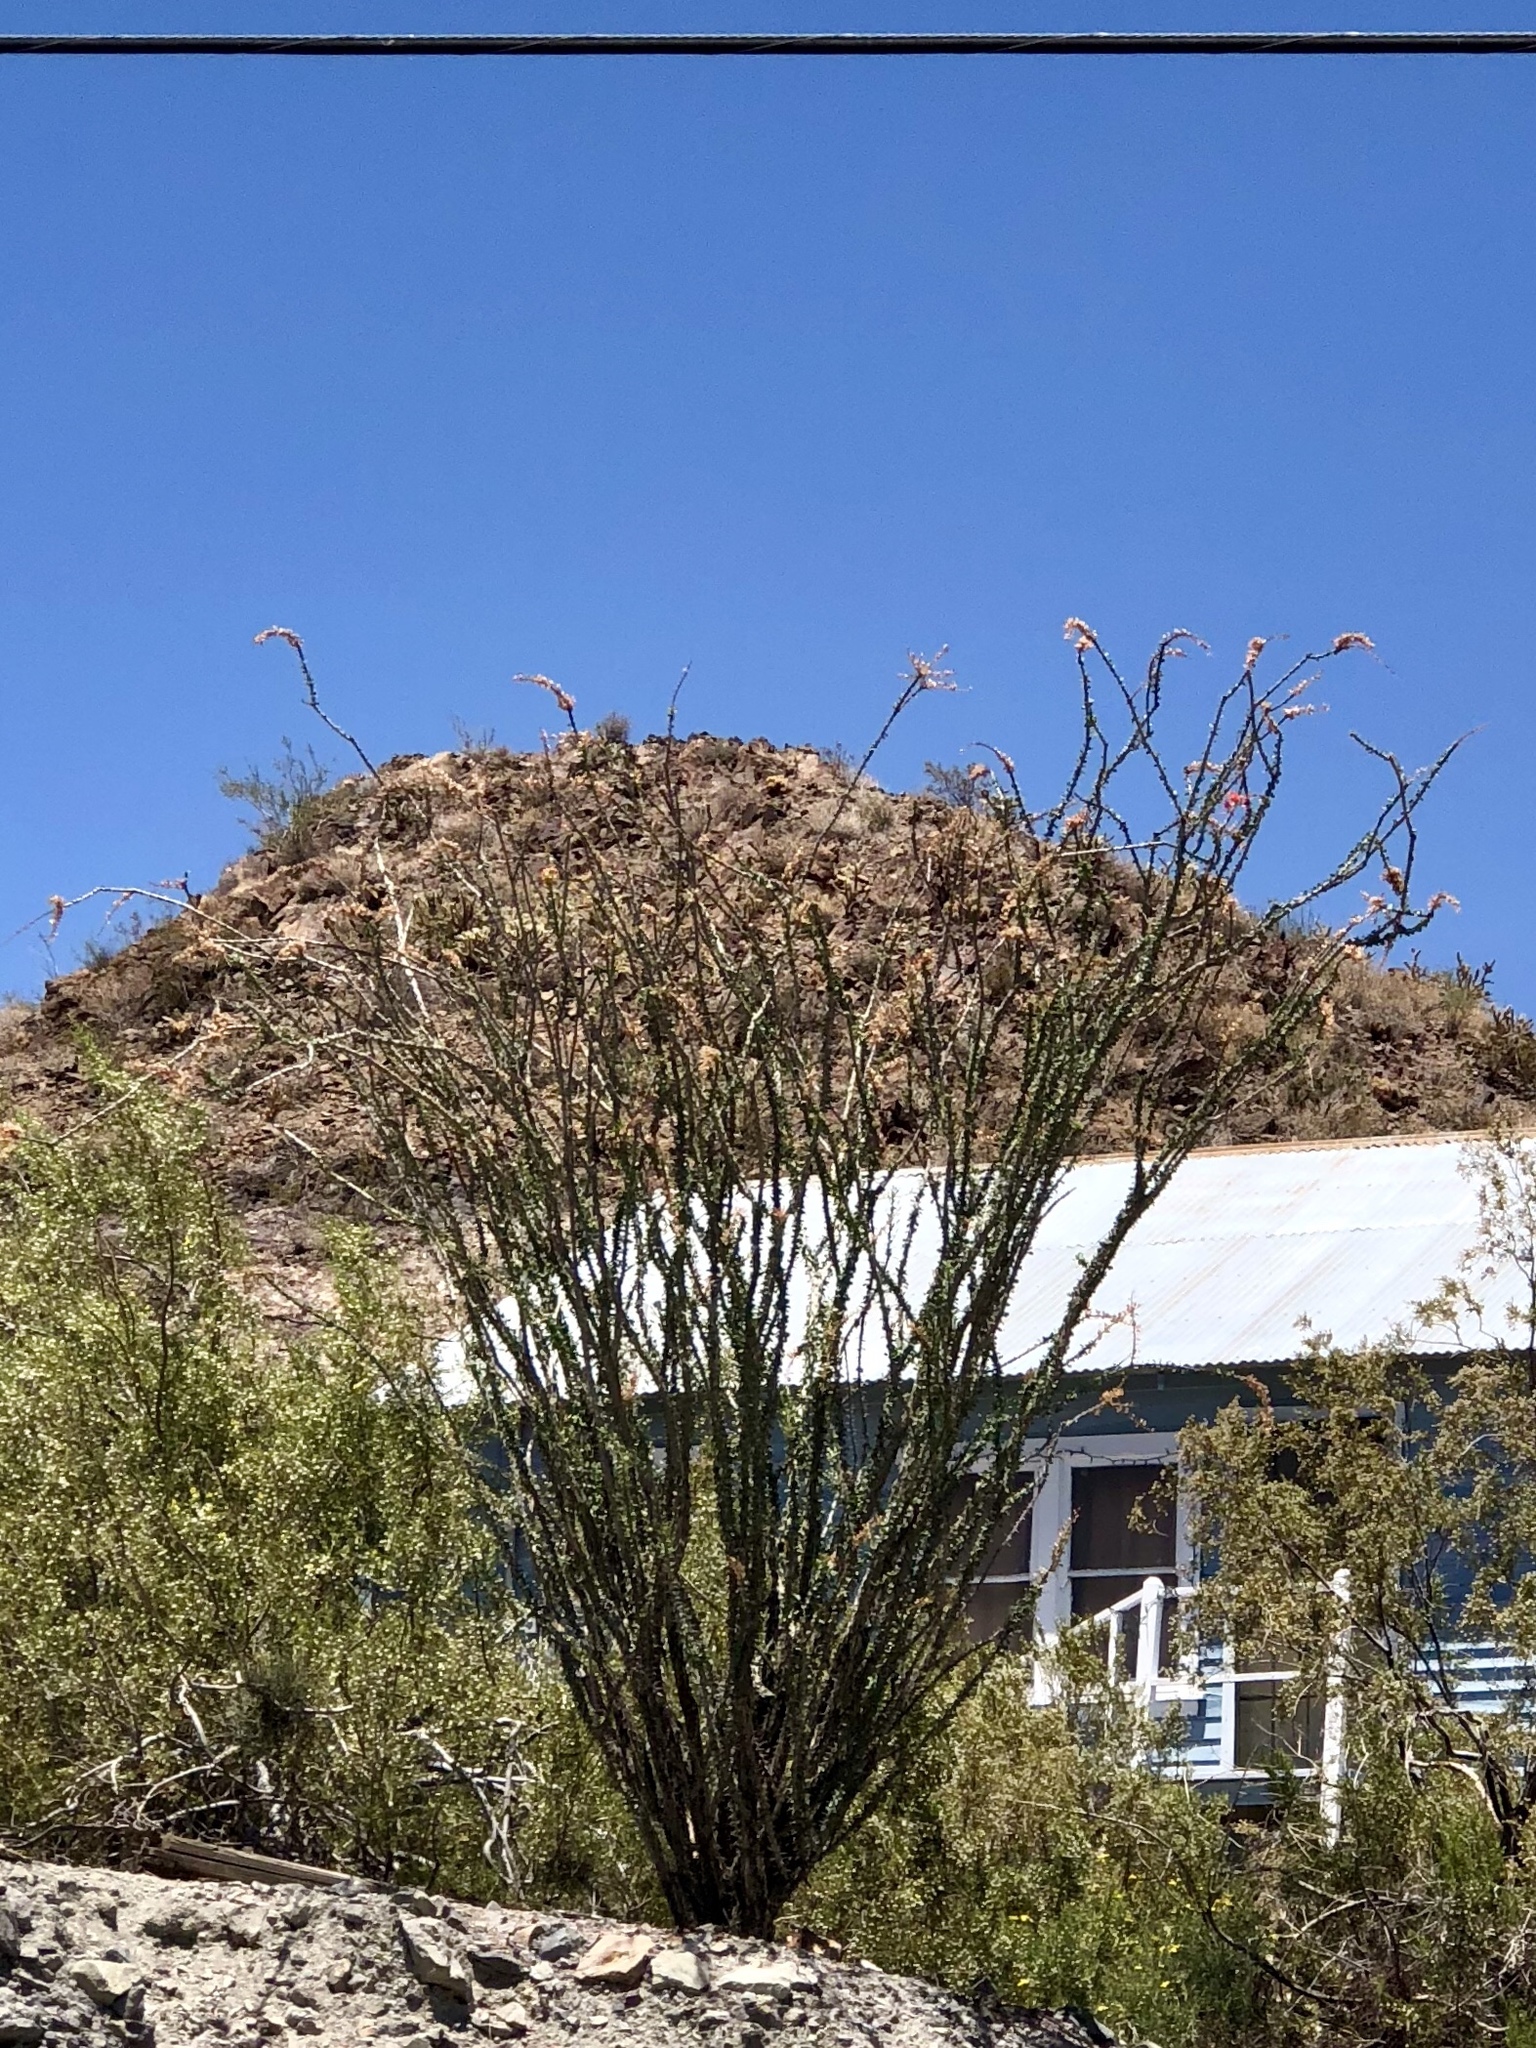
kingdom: Plantae
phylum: Tracheophyta
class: Magnoliopsida
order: Ericales
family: Fouquieriaceae
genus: Fouquieria
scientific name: Fouquieria splendens
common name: Vine-cactus
